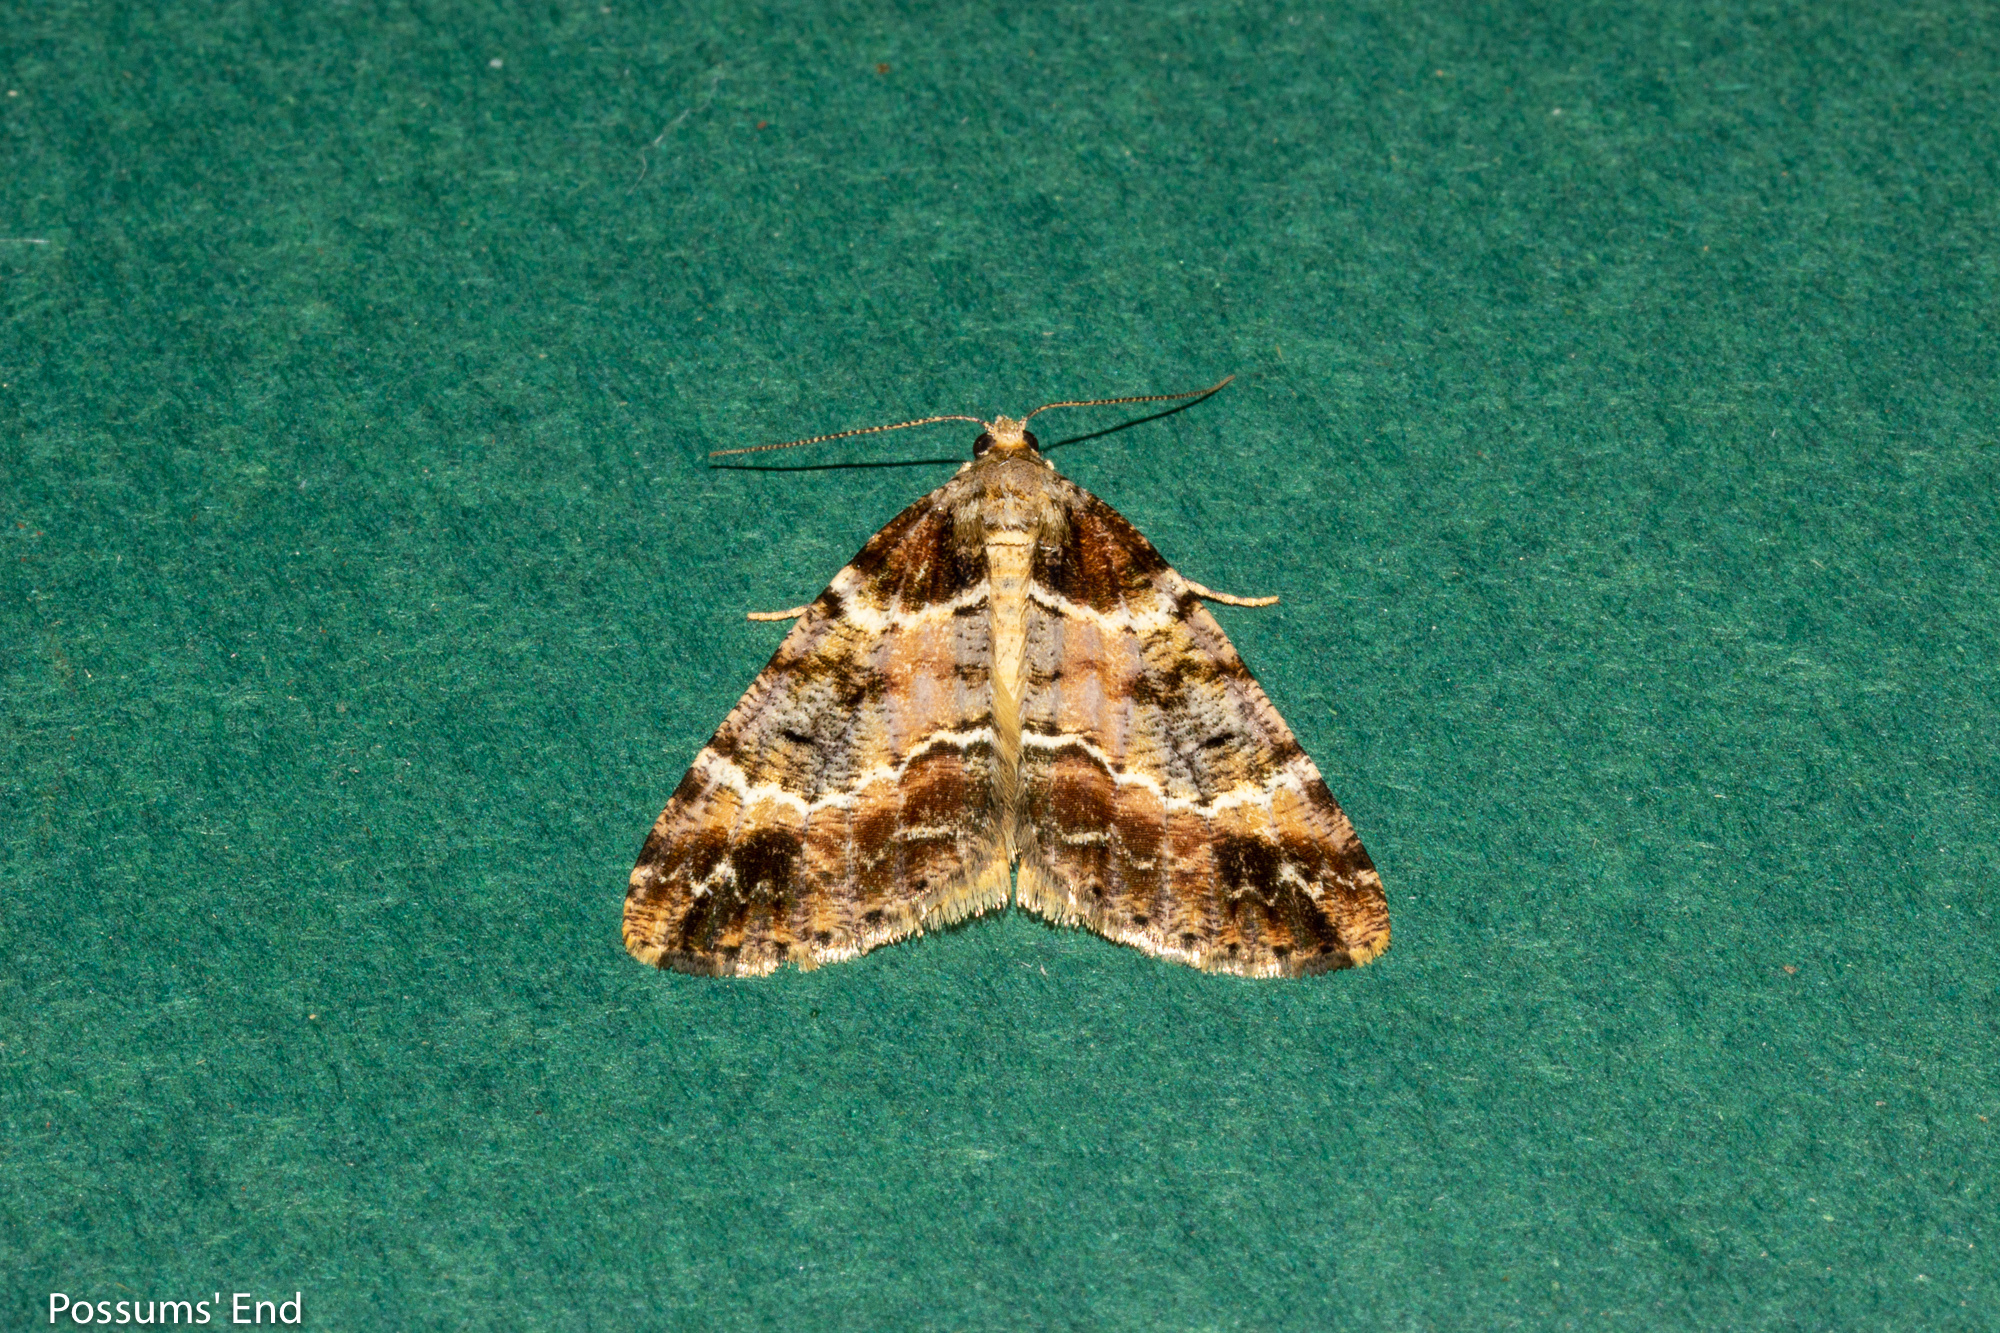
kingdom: Animalia
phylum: Arthropoda
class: Insecta
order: Lepidoptera
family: Geometridae
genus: Pseudocoremia
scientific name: Pseudocoremia productata
